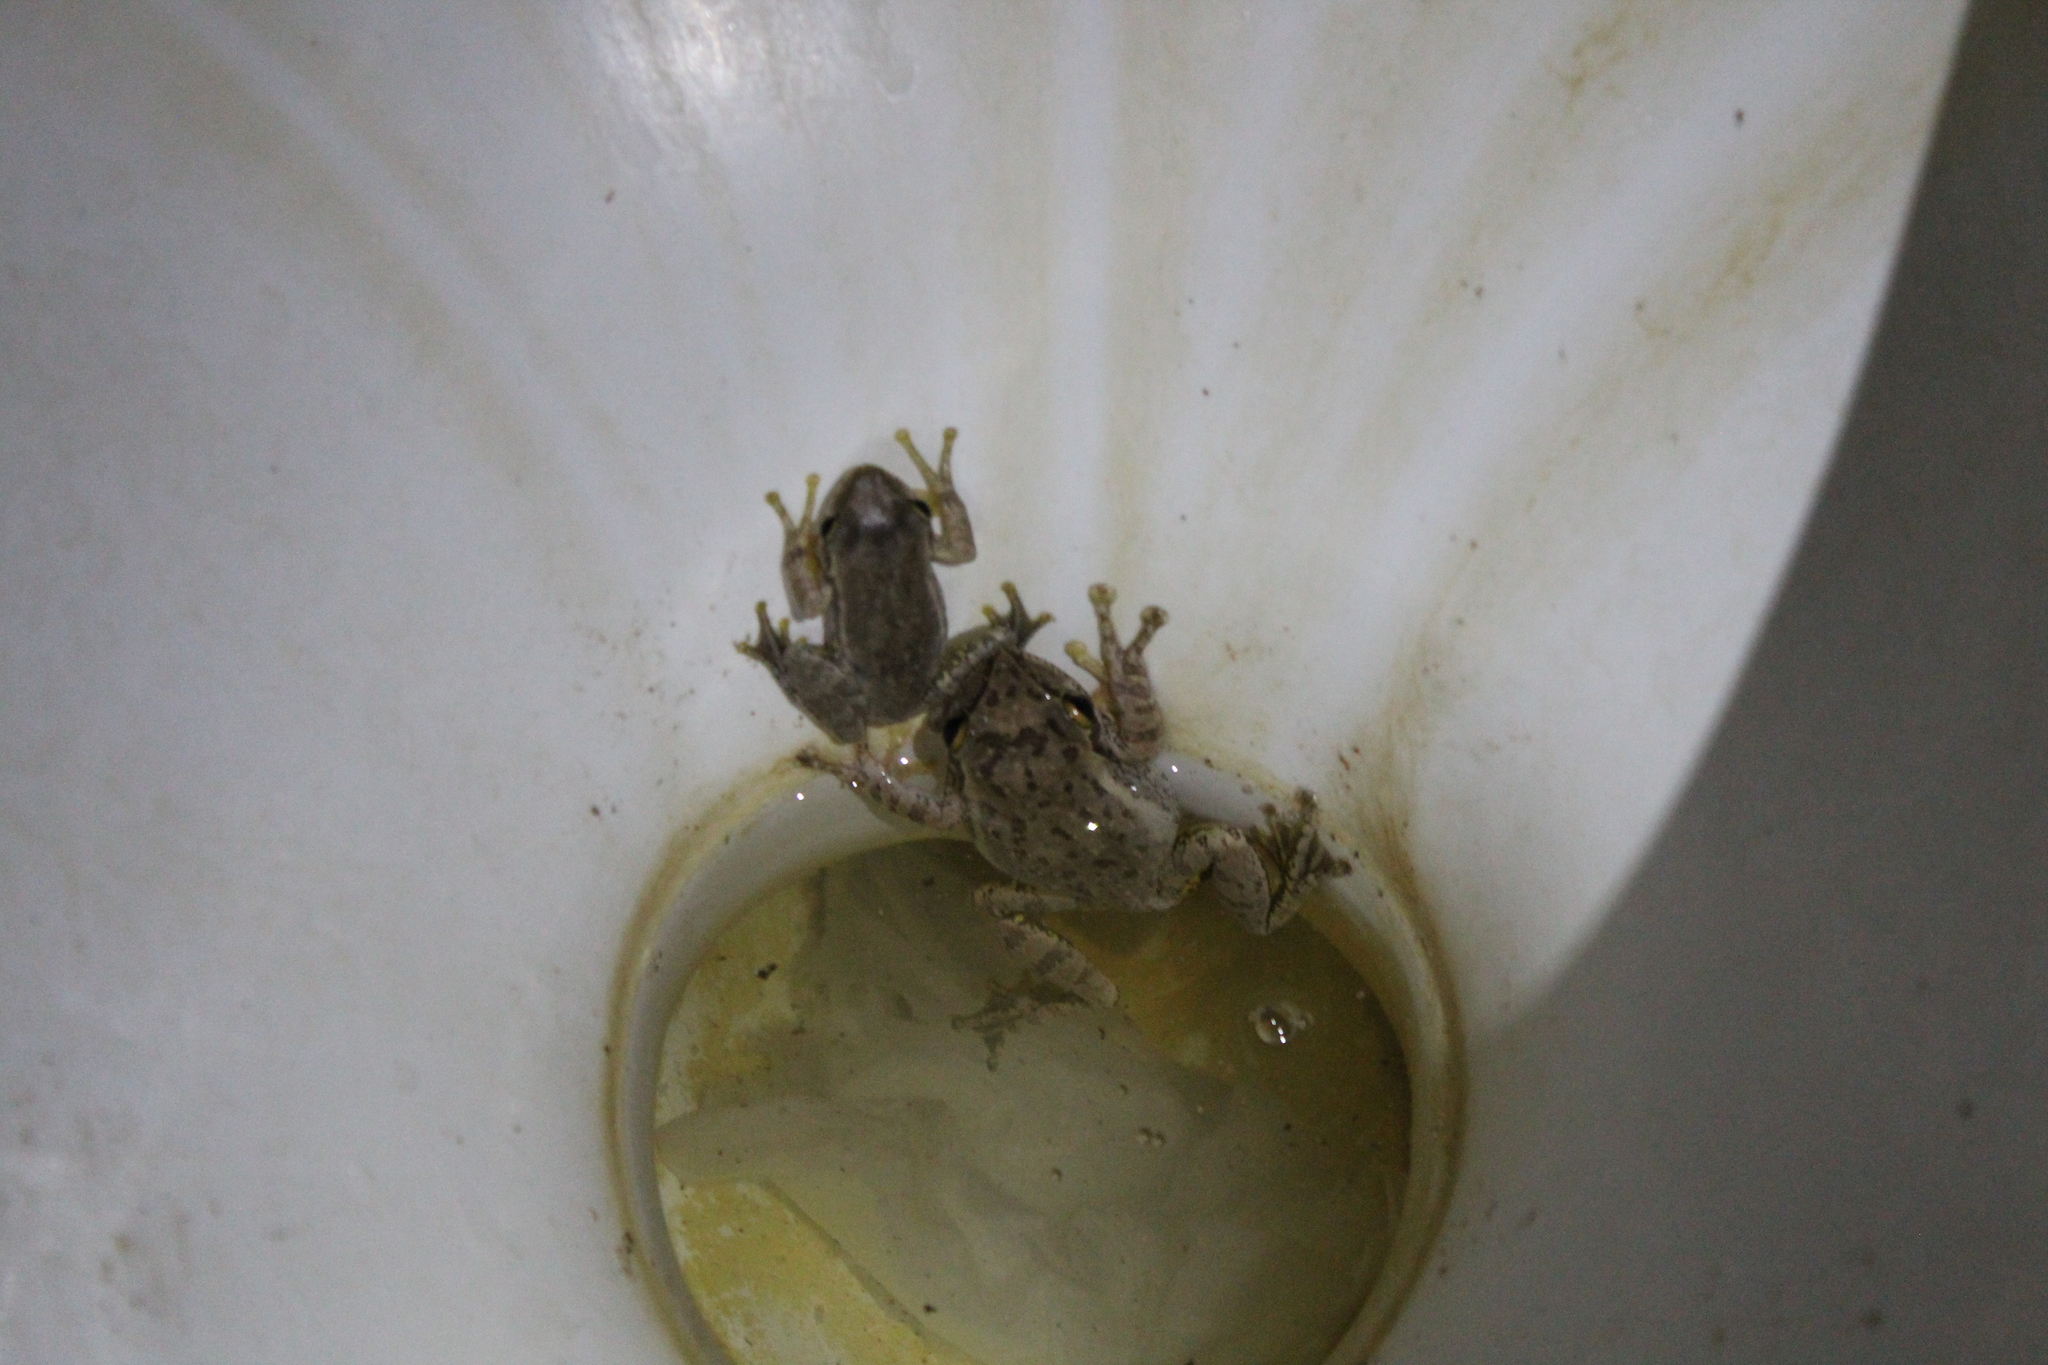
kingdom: Animalia
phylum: Chordata
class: Amphibia
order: Anura
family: Mantellidae
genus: Boophis
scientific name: Boophis doulioti
